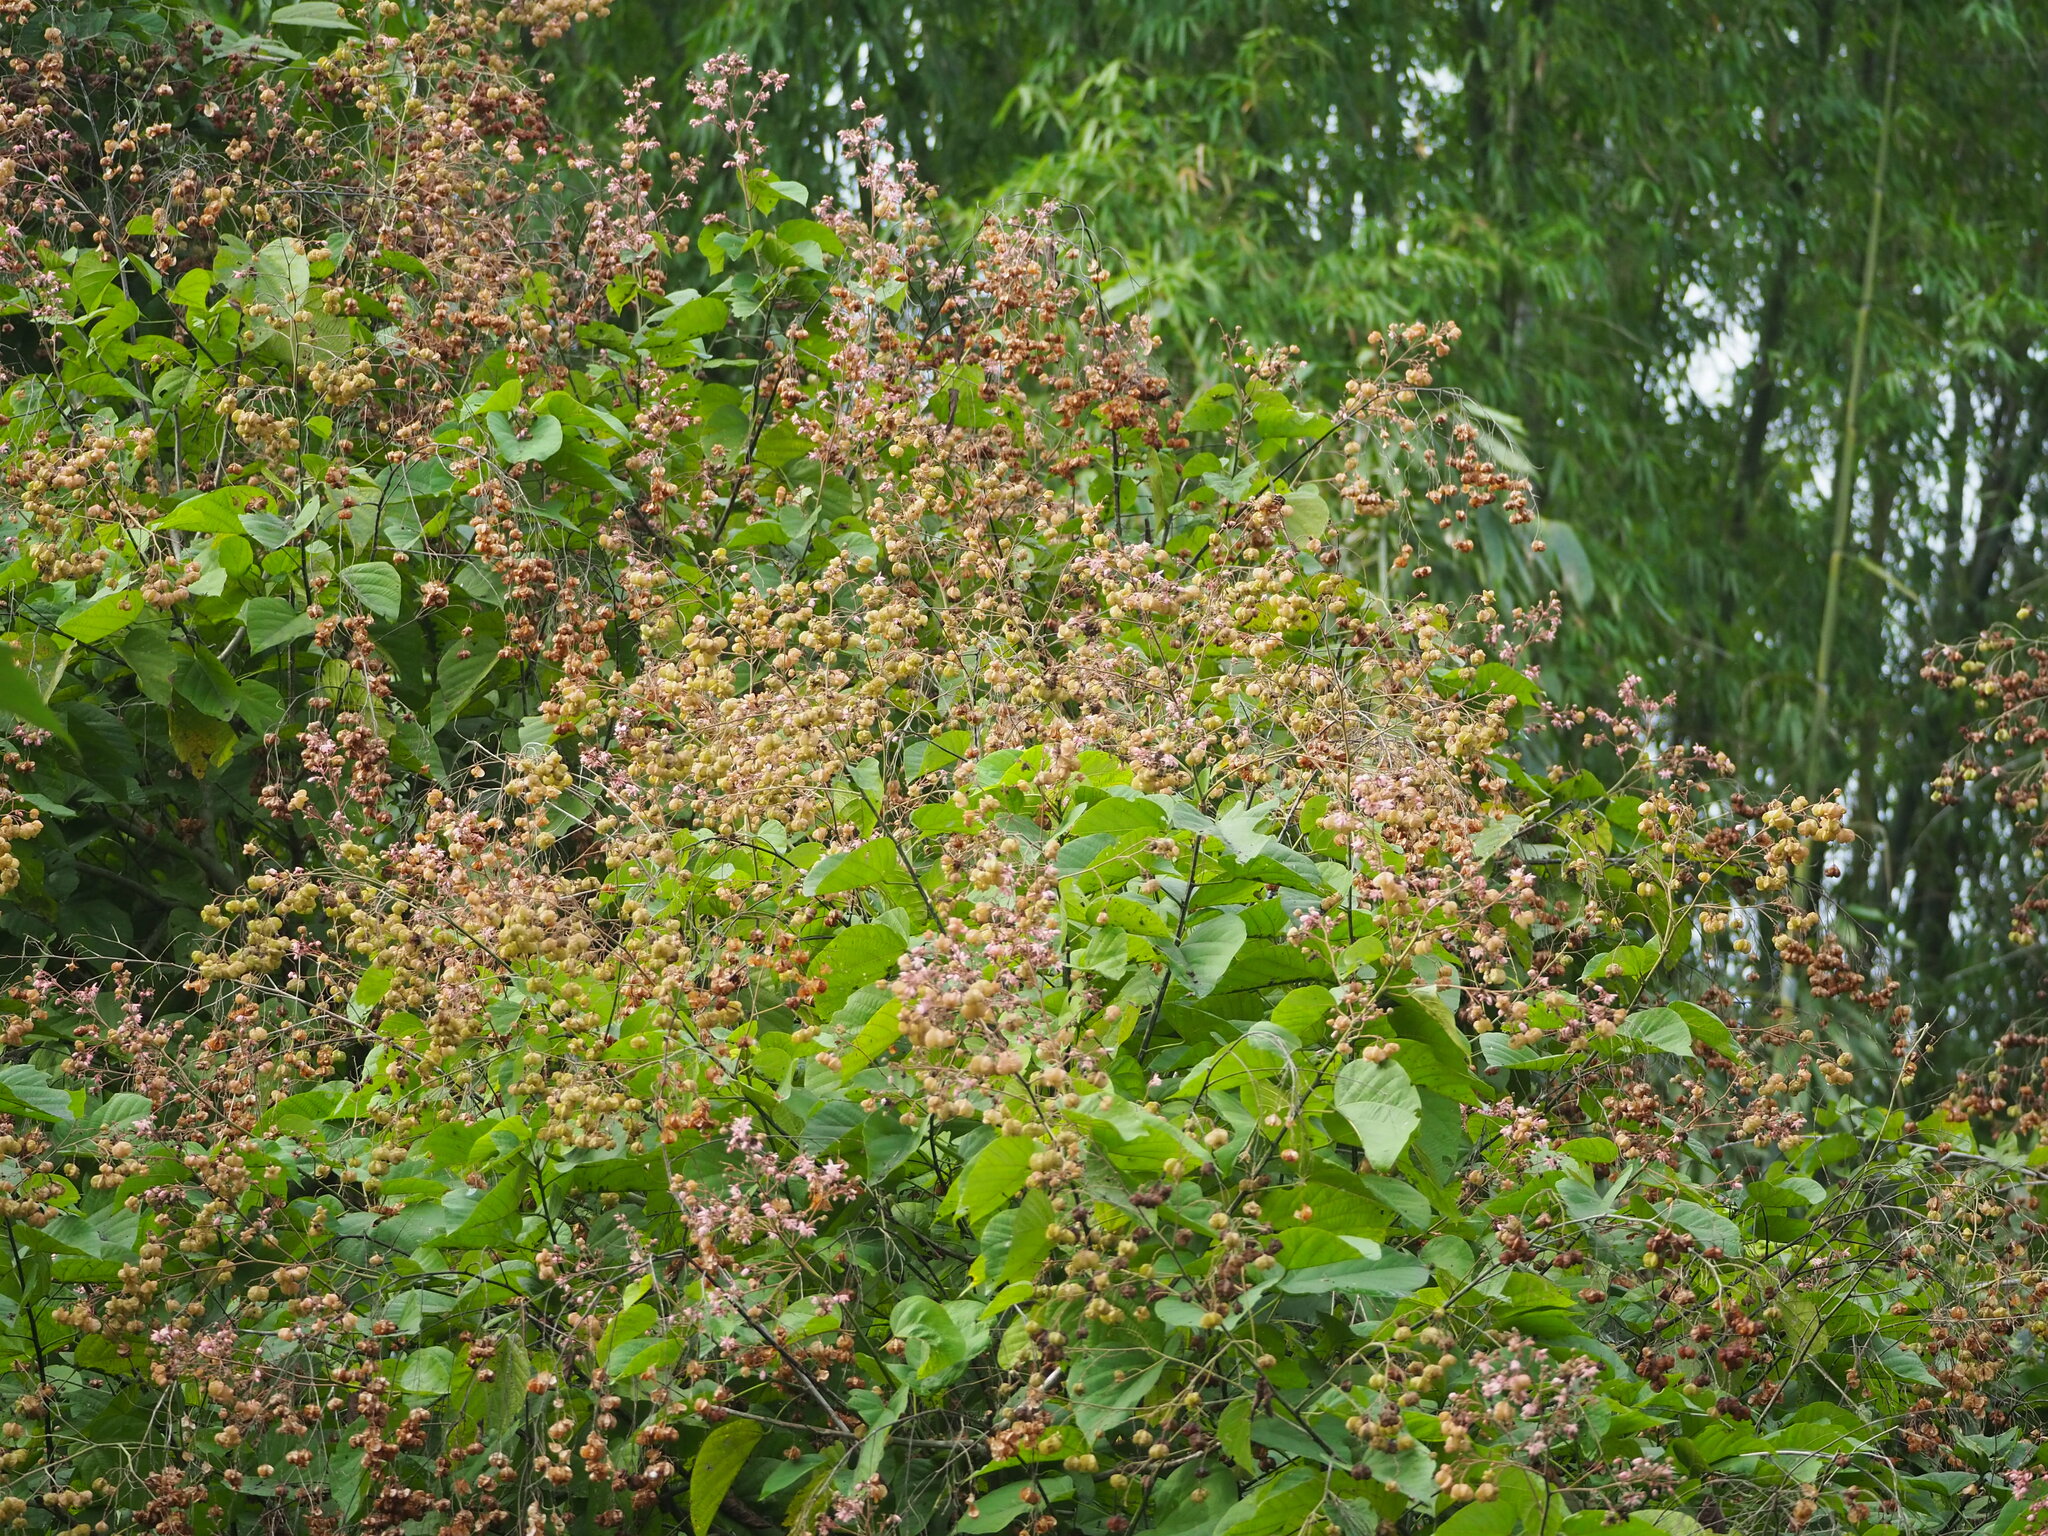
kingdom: Plantae
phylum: Tracheophyta
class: Magnoliopsida
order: Malvales
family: Malvaceae
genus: Kleinhovia
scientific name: Kleinhovia hospita
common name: Guest-tree
